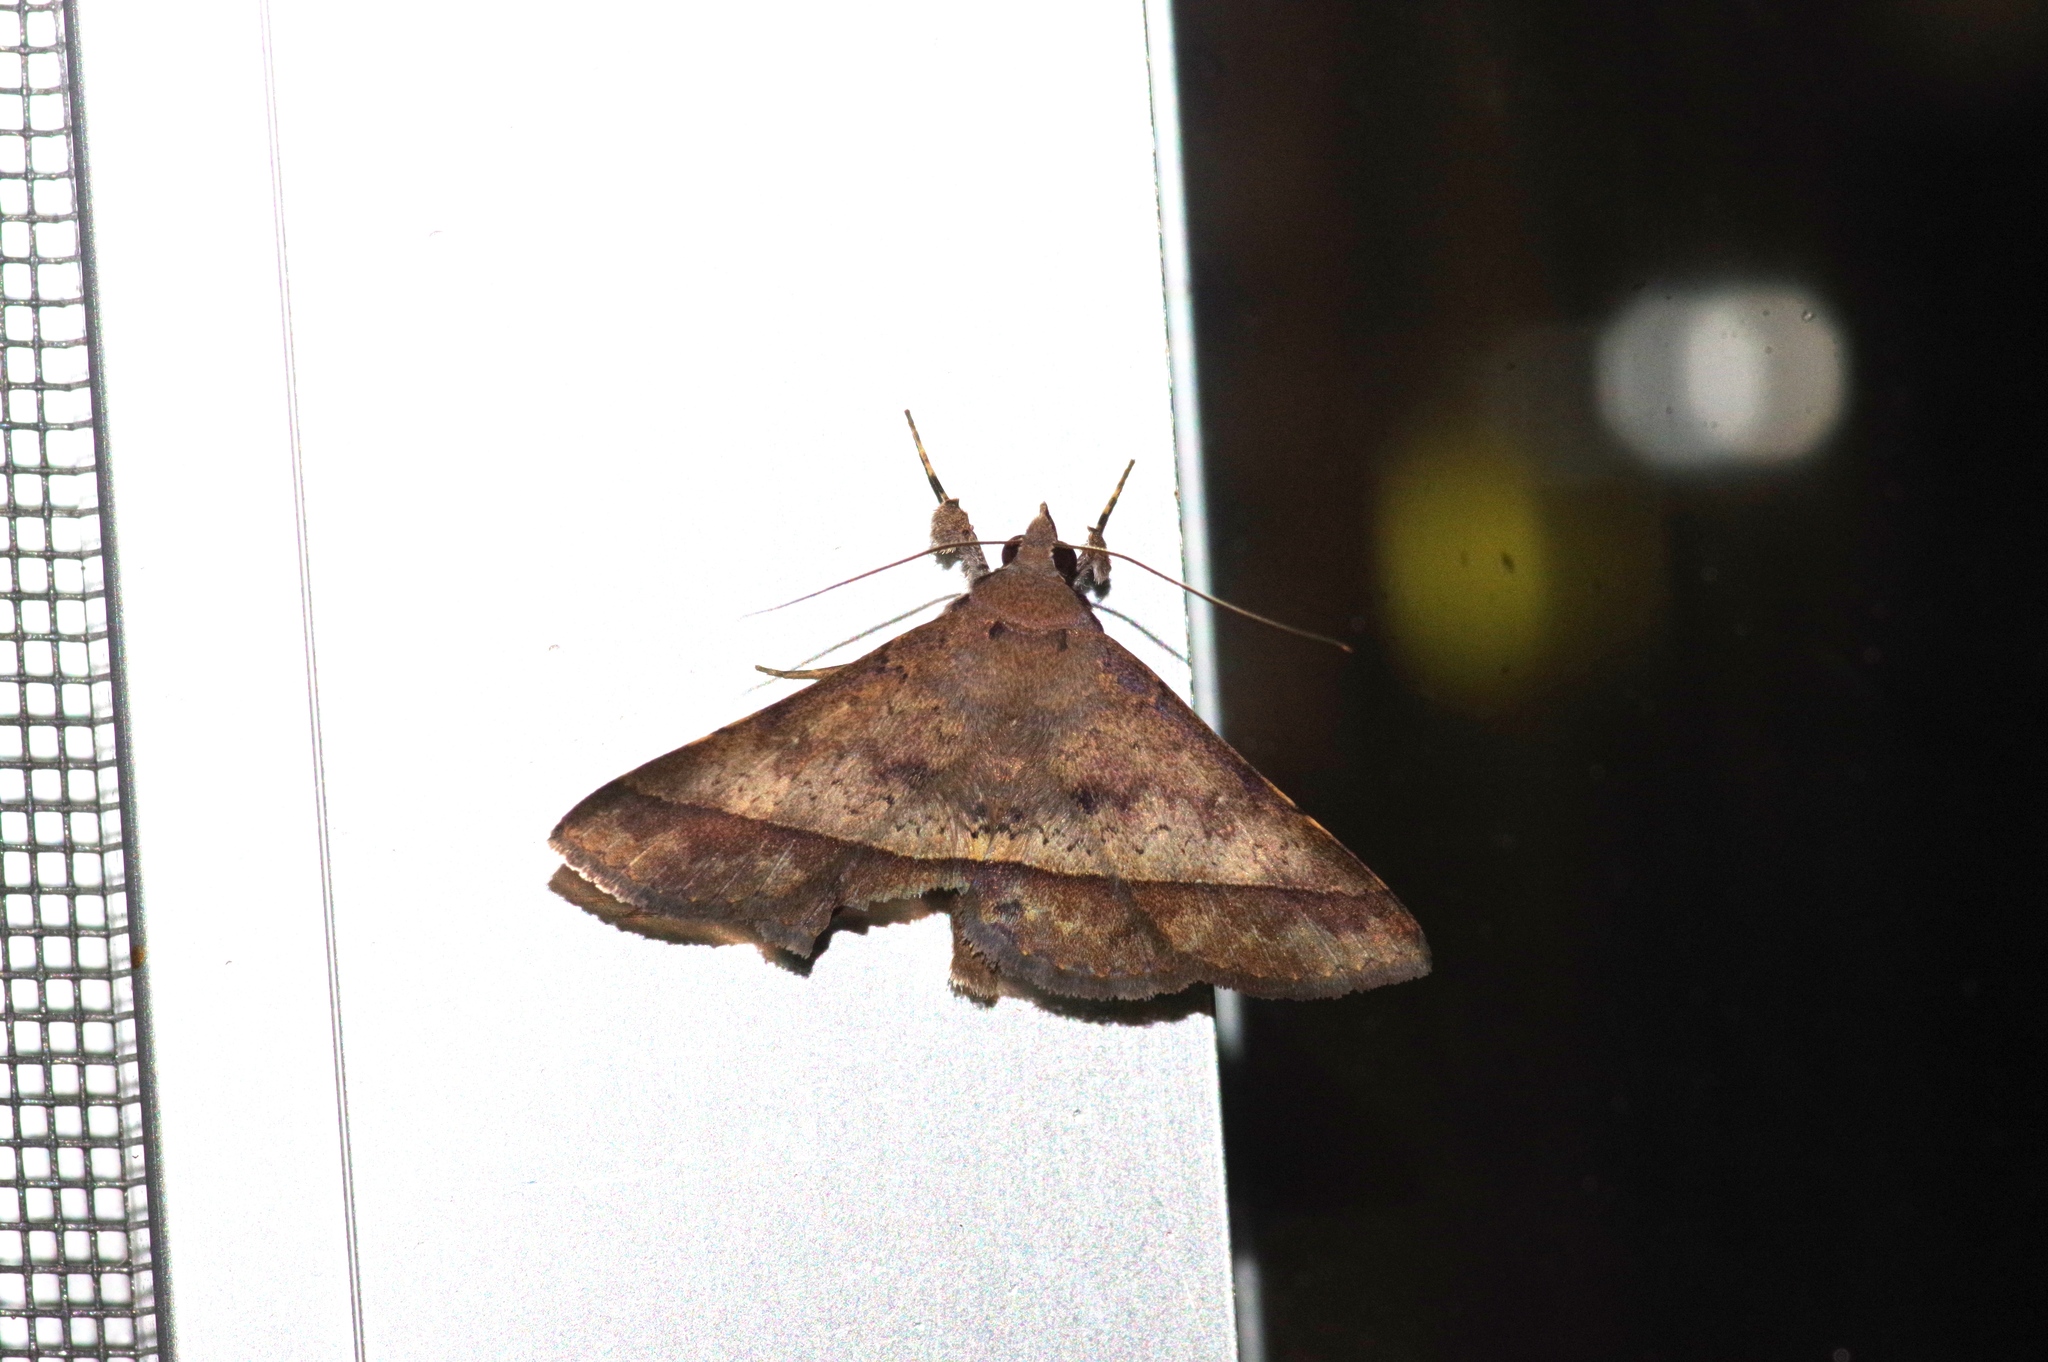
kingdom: Animalia
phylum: Arthropoda
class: Insecta
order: Lepidoptera
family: Erebidae
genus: Hypospila
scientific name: Hypospila bolinoides
